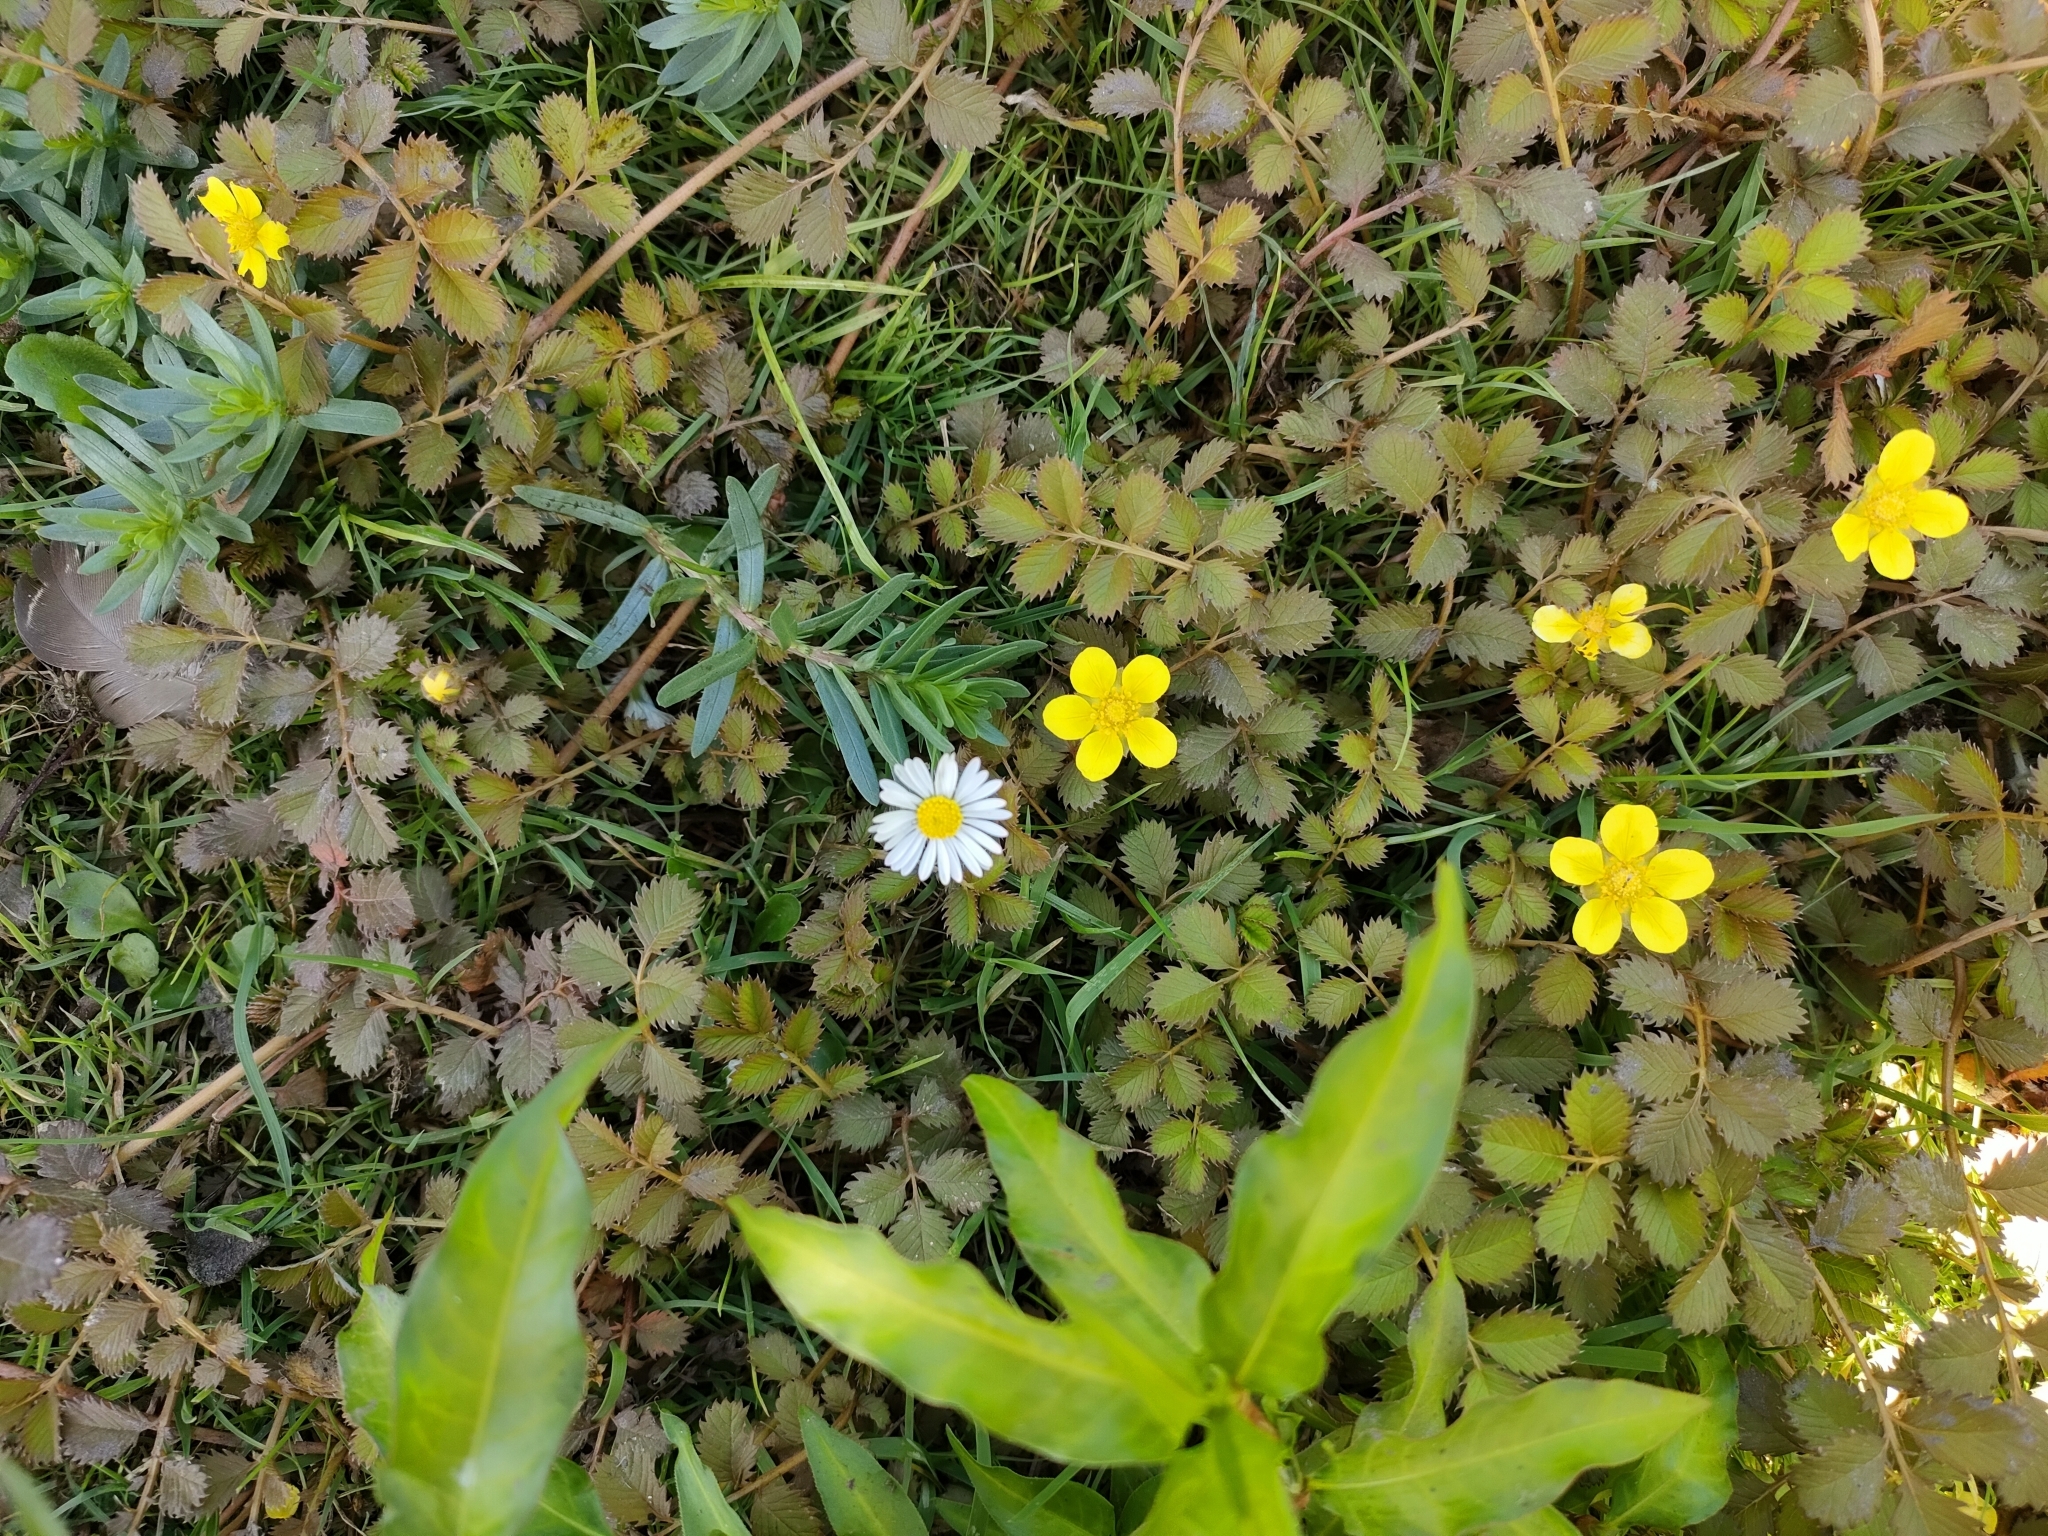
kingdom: Plantae
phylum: Tracheophyta
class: Magnoliopsida
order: Rosales
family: Rosaceae
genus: Argentina
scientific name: Argentina anserinoides
